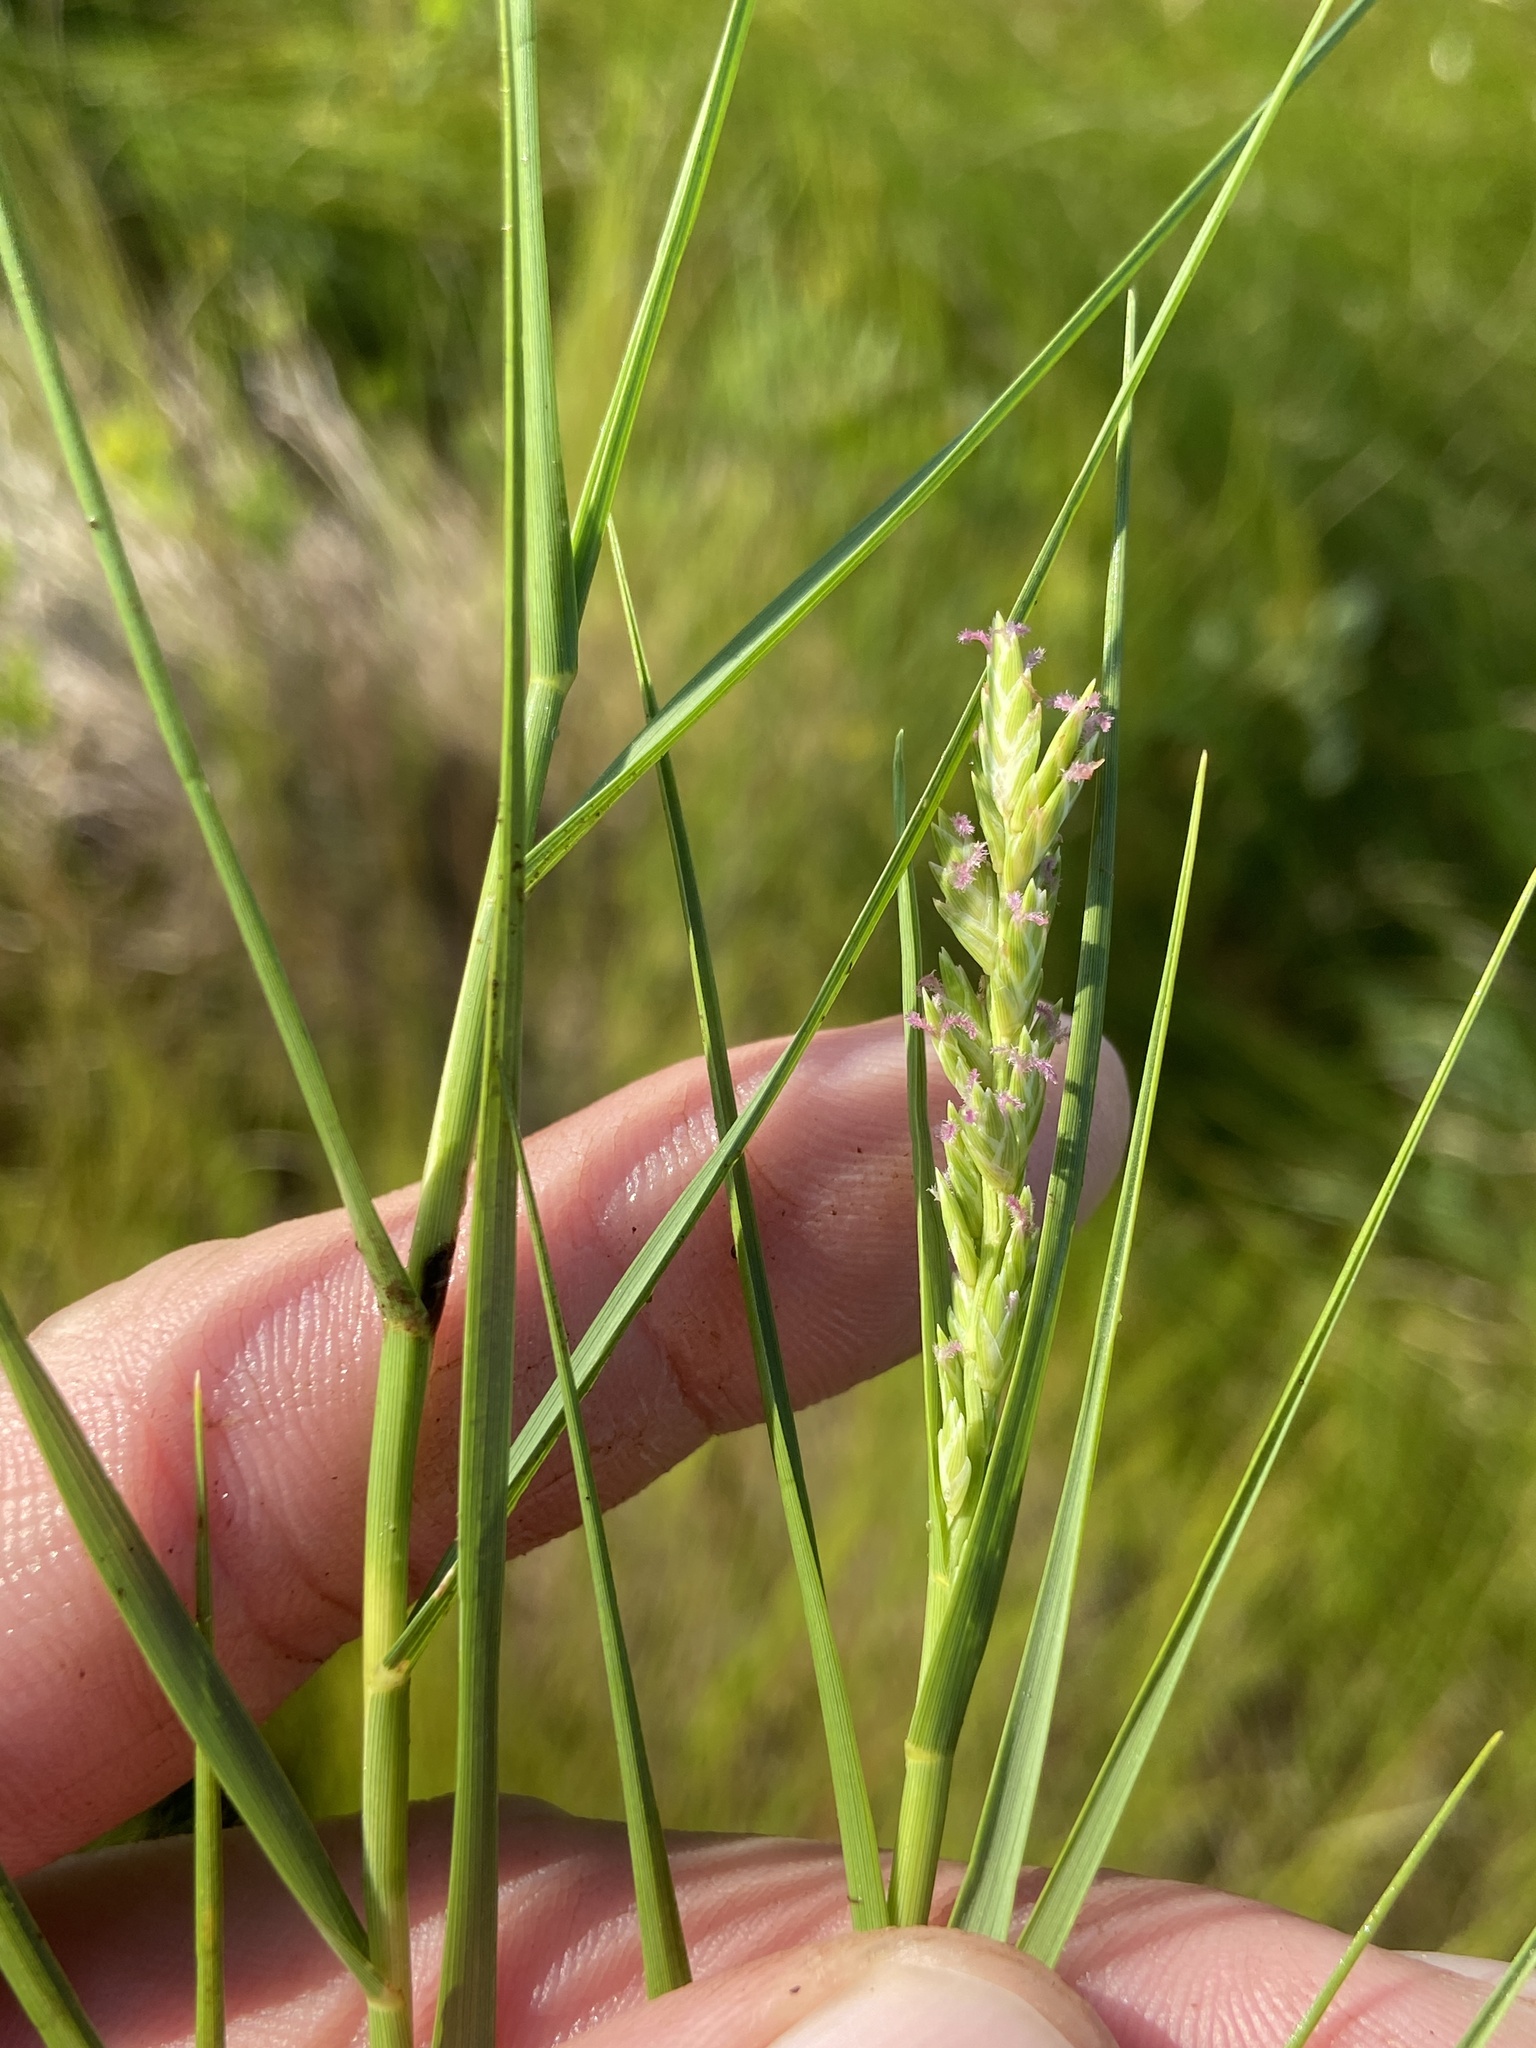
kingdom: Plantae
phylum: Tracheophyta
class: Liliopsida
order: Poales
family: Poaceae
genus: Distichlis
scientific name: Distichlis spicata
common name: Saltgrass
